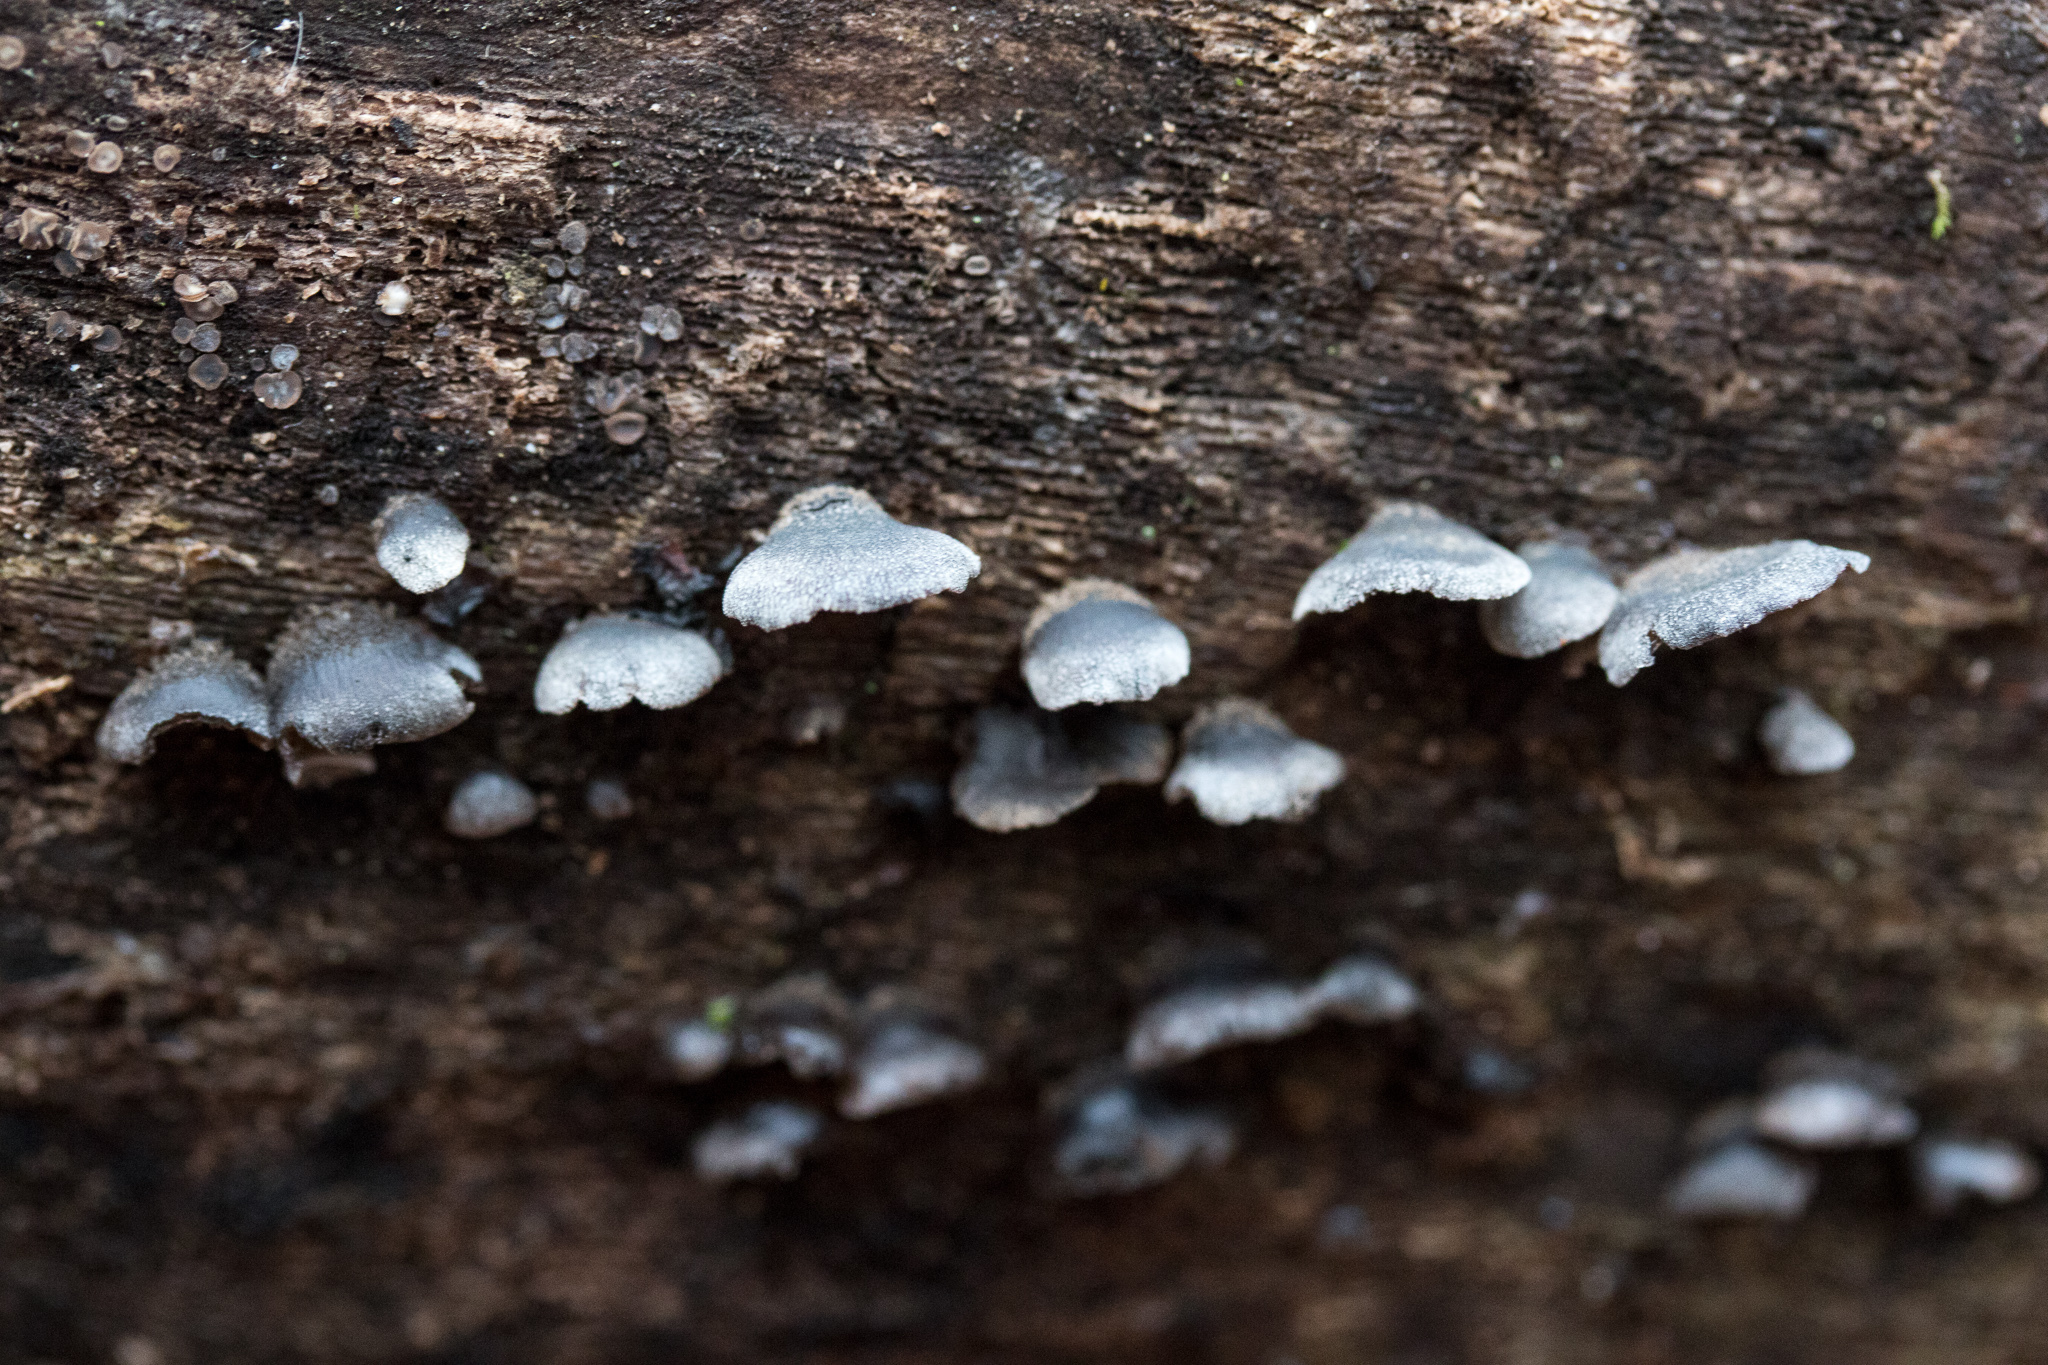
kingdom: Fungi
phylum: Basidiomycota
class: Agaricomycetes
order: Agaricales
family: Pleurotaceae
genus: Resupinatus
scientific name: Resupinatus applicatus
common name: Smoked oysterling
